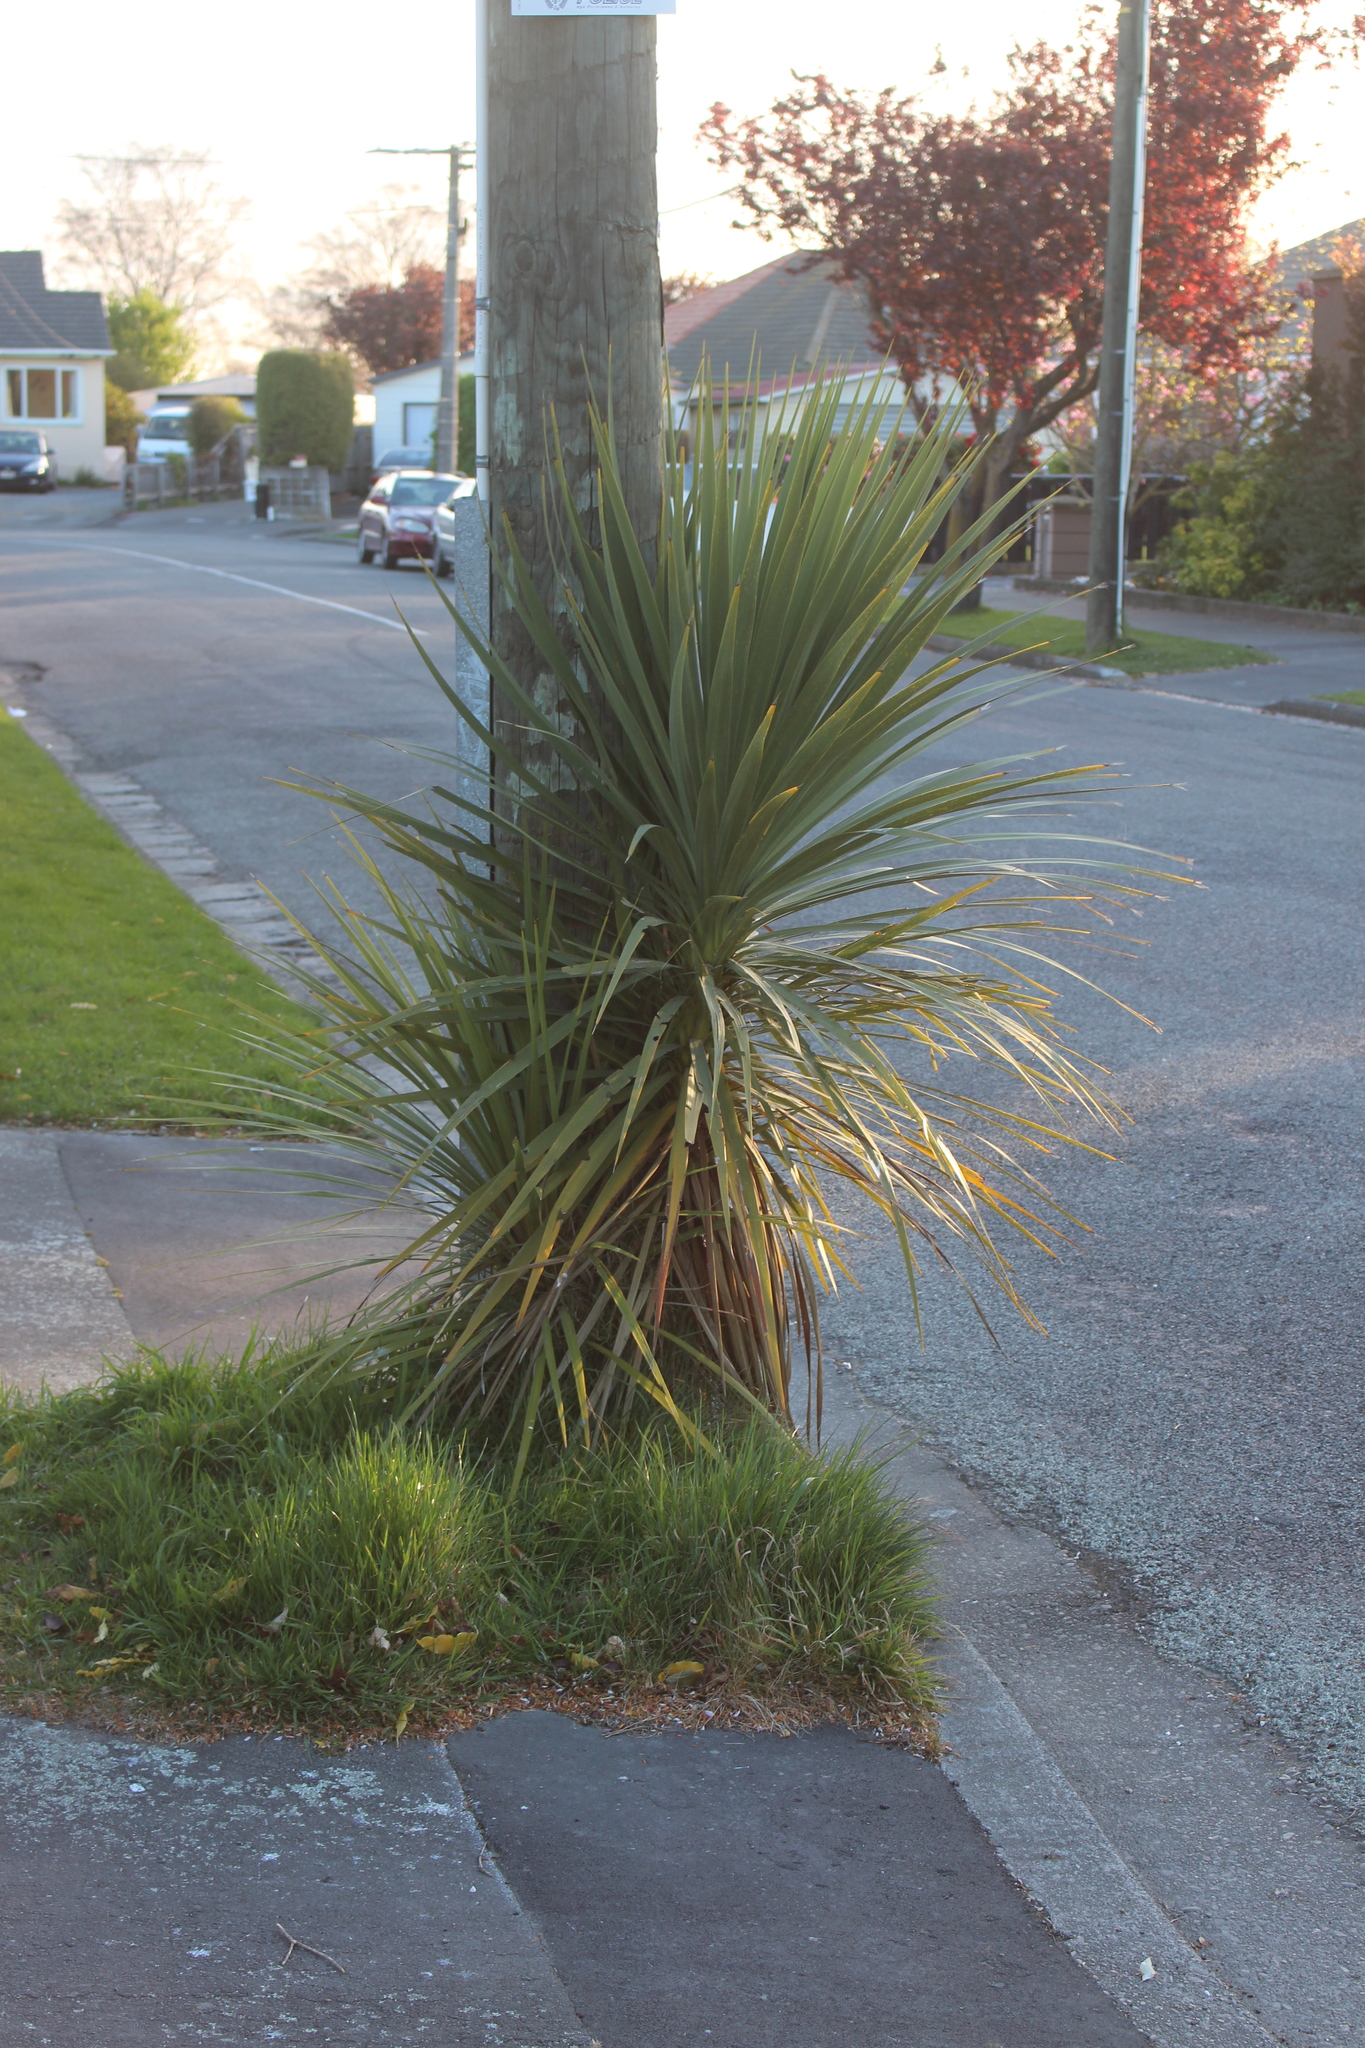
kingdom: Plantae
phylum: Tracheophyta
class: Liliopsida
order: Asparagales
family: Asparagaceae
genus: Cordyline
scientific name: Cordyline australis
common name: Cabbage-palm
